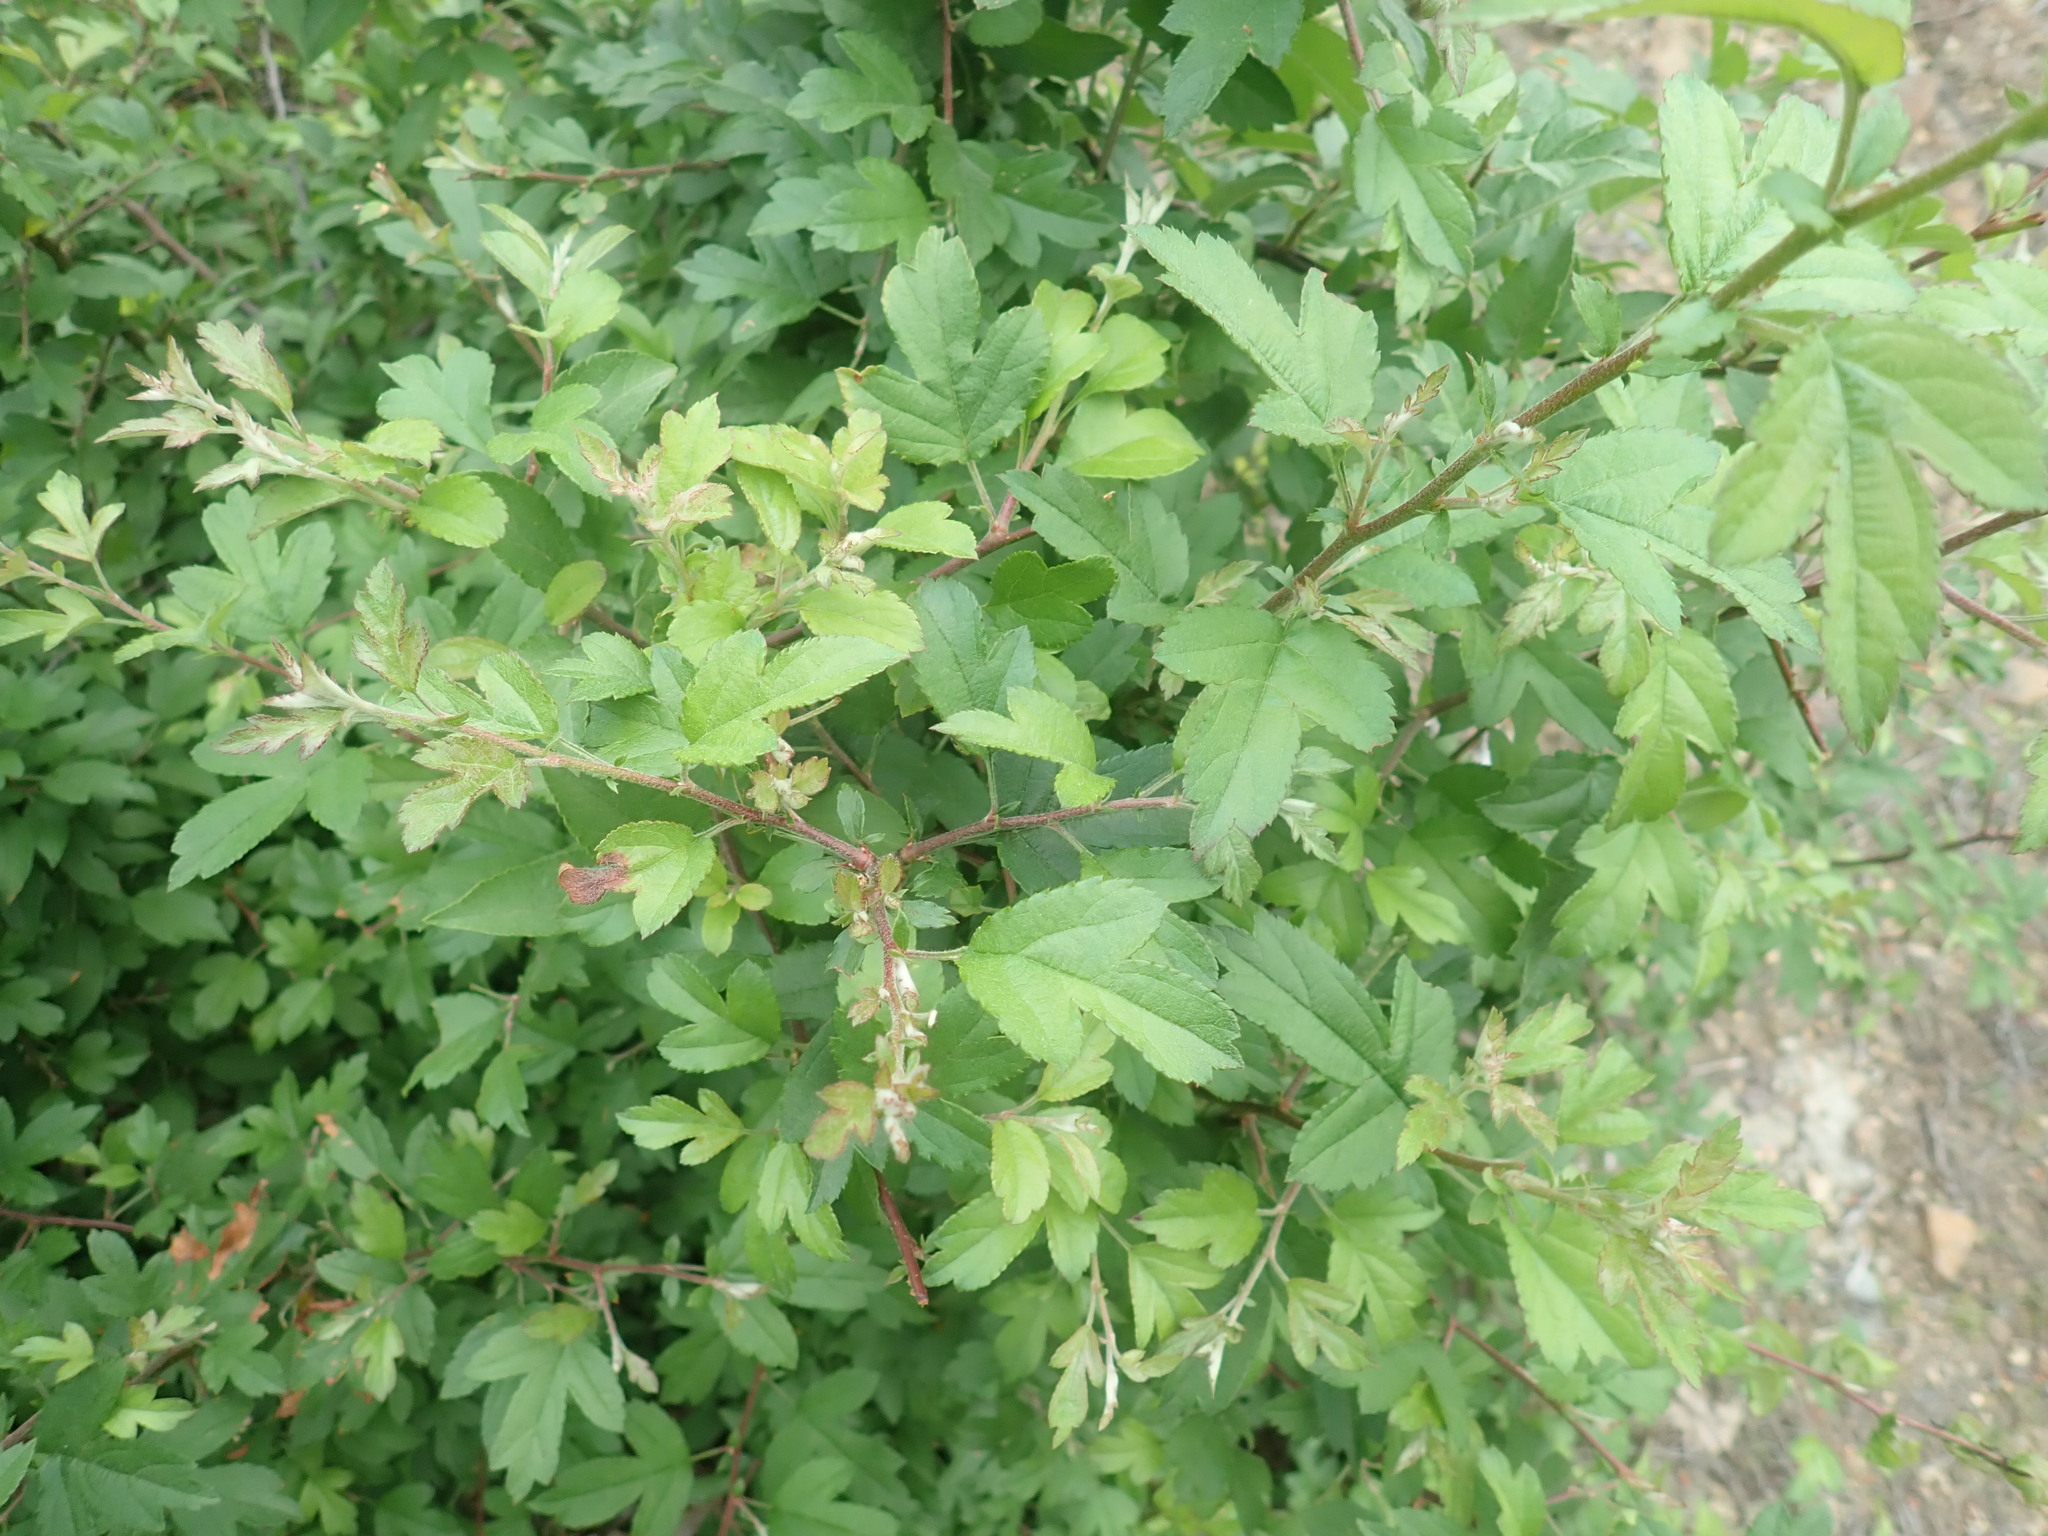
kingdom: Plantae
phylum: Tracheophyta
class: Magnoliopsida
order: Malvales
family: Malvaceae
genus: Hibiscus
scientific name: Hibiscus syriacus
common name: Syrian ketmia
